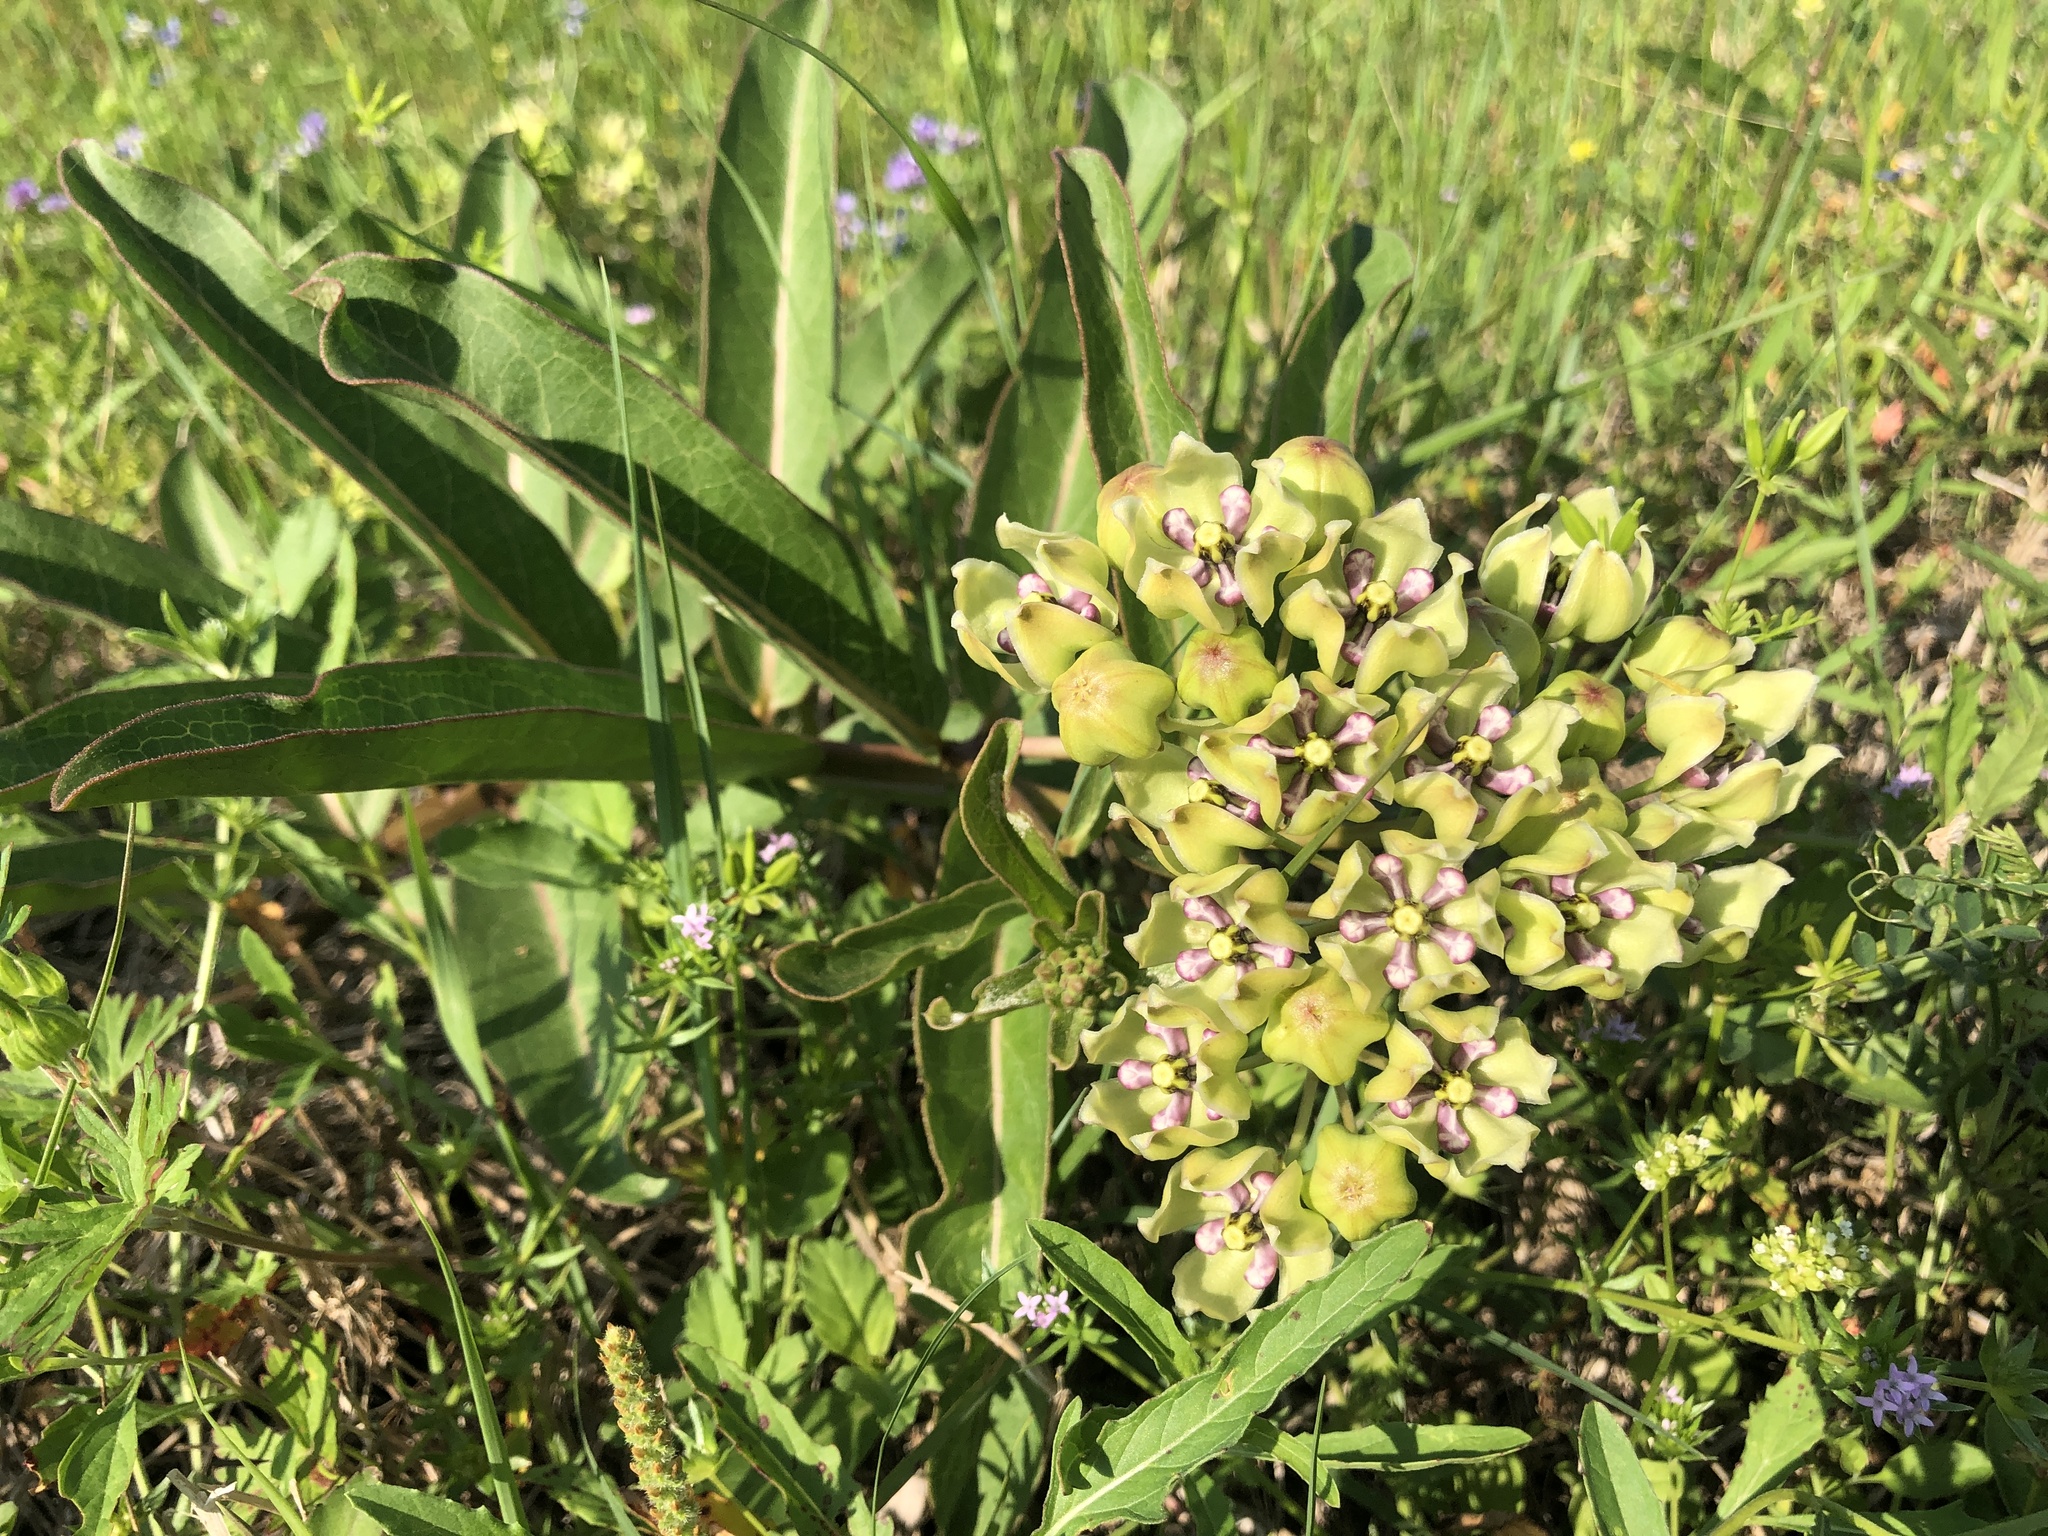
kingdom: Plantae
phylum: Tracheophyta
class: Magnoliopsida
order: Gentianales
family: Apocynaceae
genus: Asclepias
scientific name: Asclepias viridis
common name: Antelope-horns
